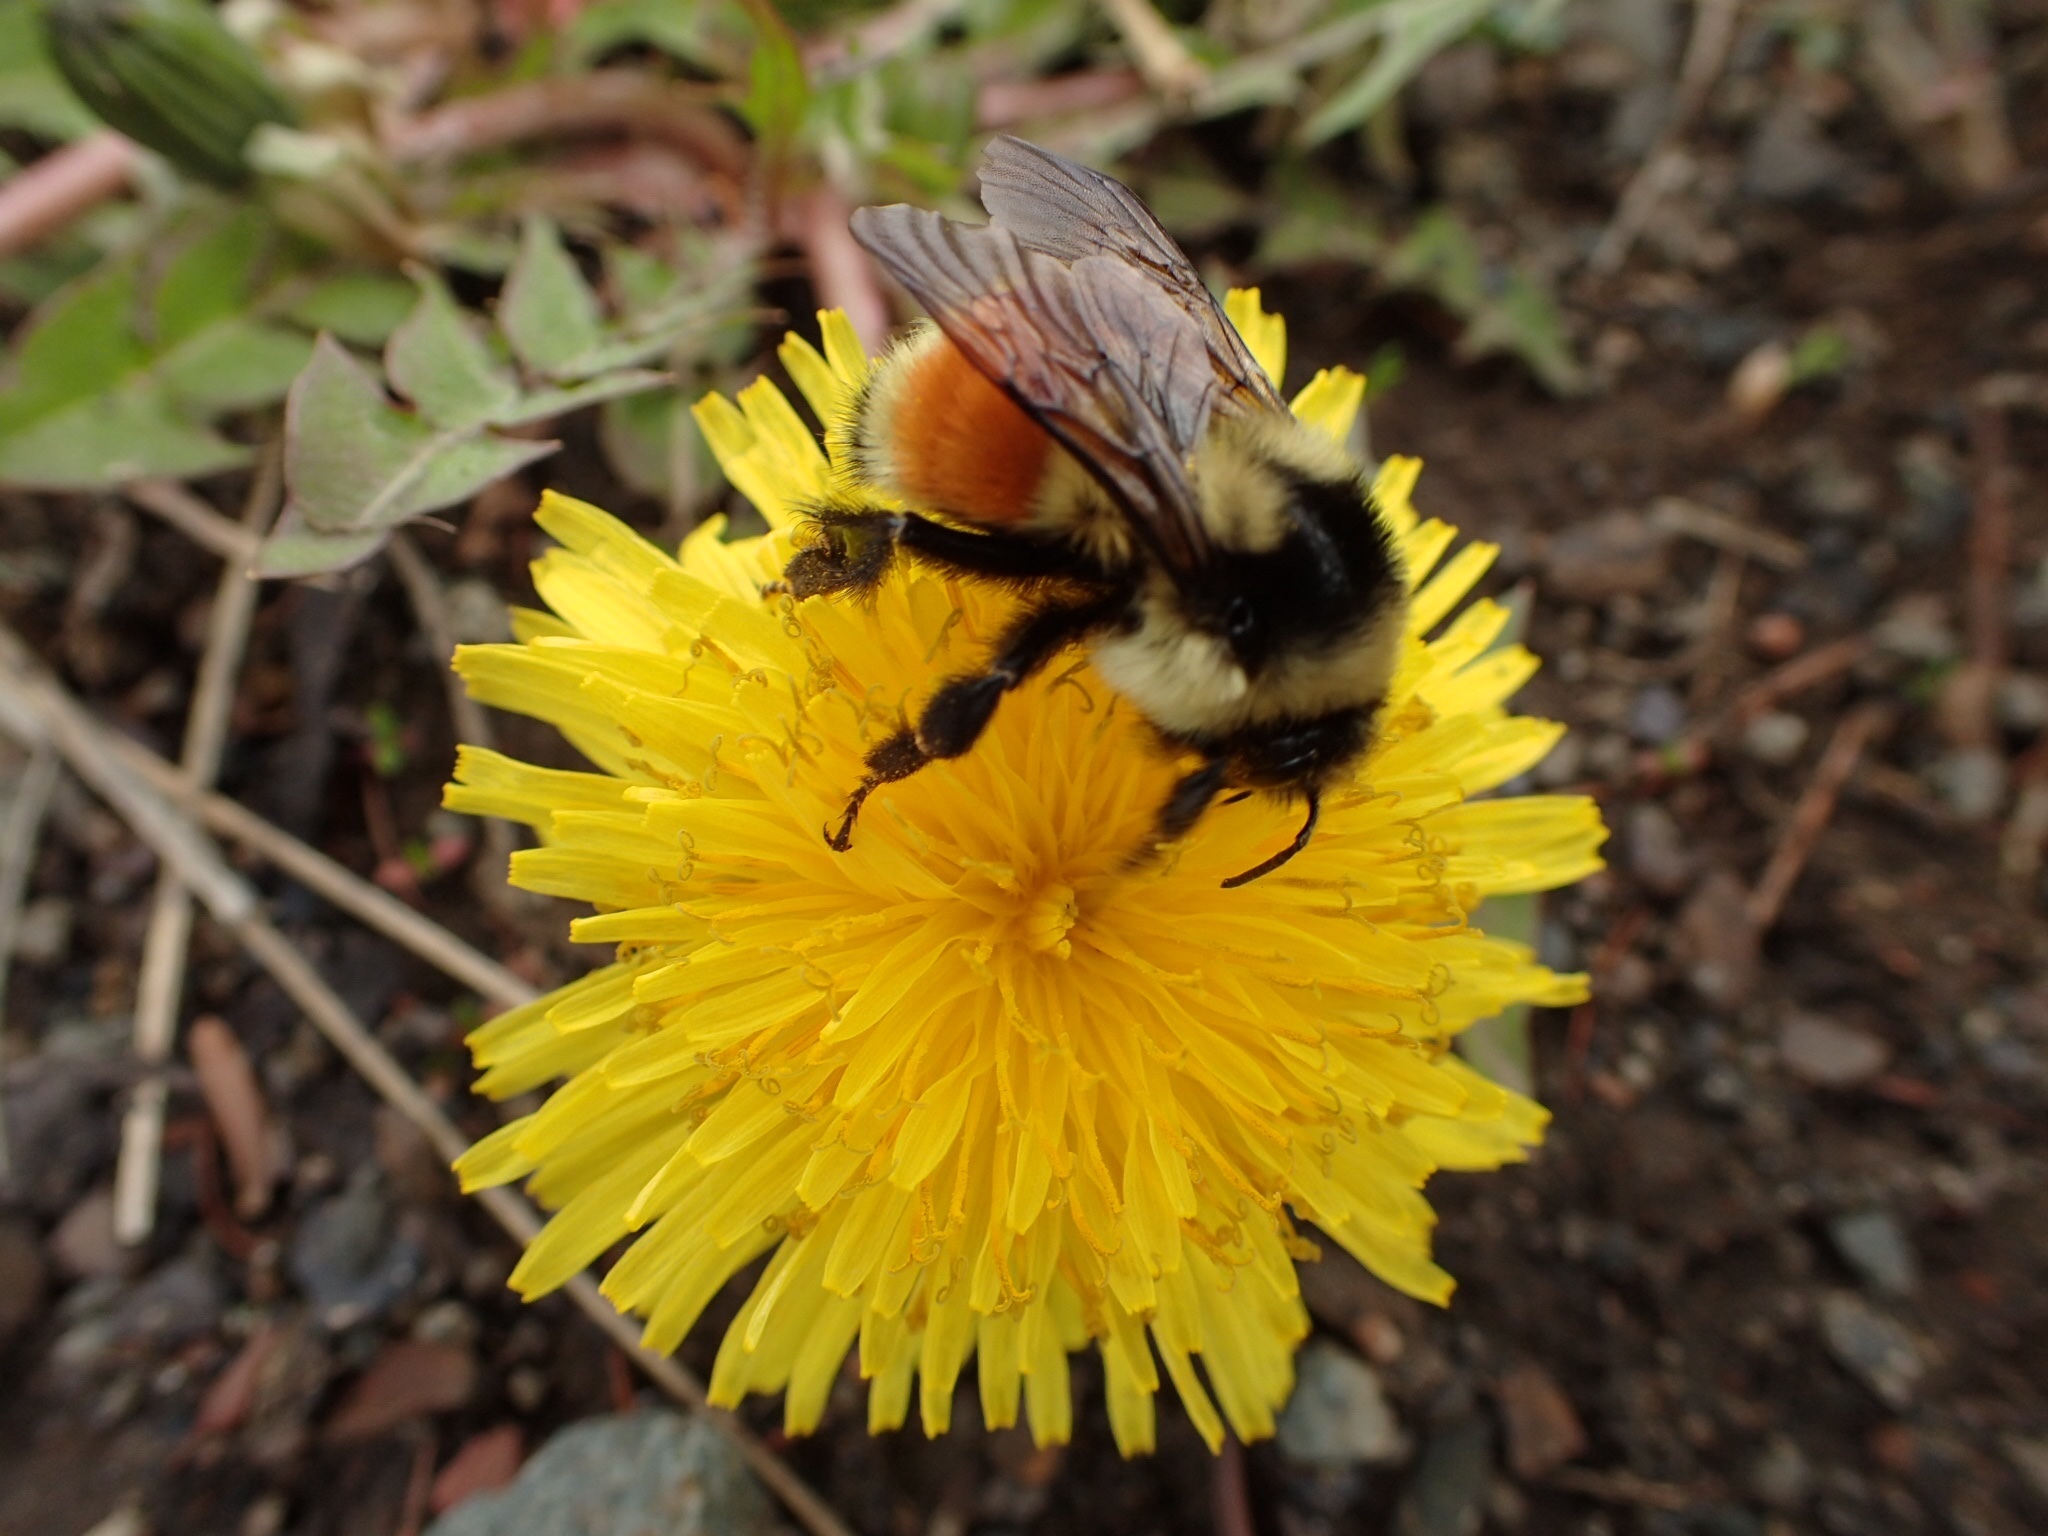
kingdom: Animalia
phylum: Arthropoda
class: Insecta
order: Hymenoptera
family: Apidae
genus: Bombus
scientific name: Bombus ternarius
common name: Tri-colored bumble bee
